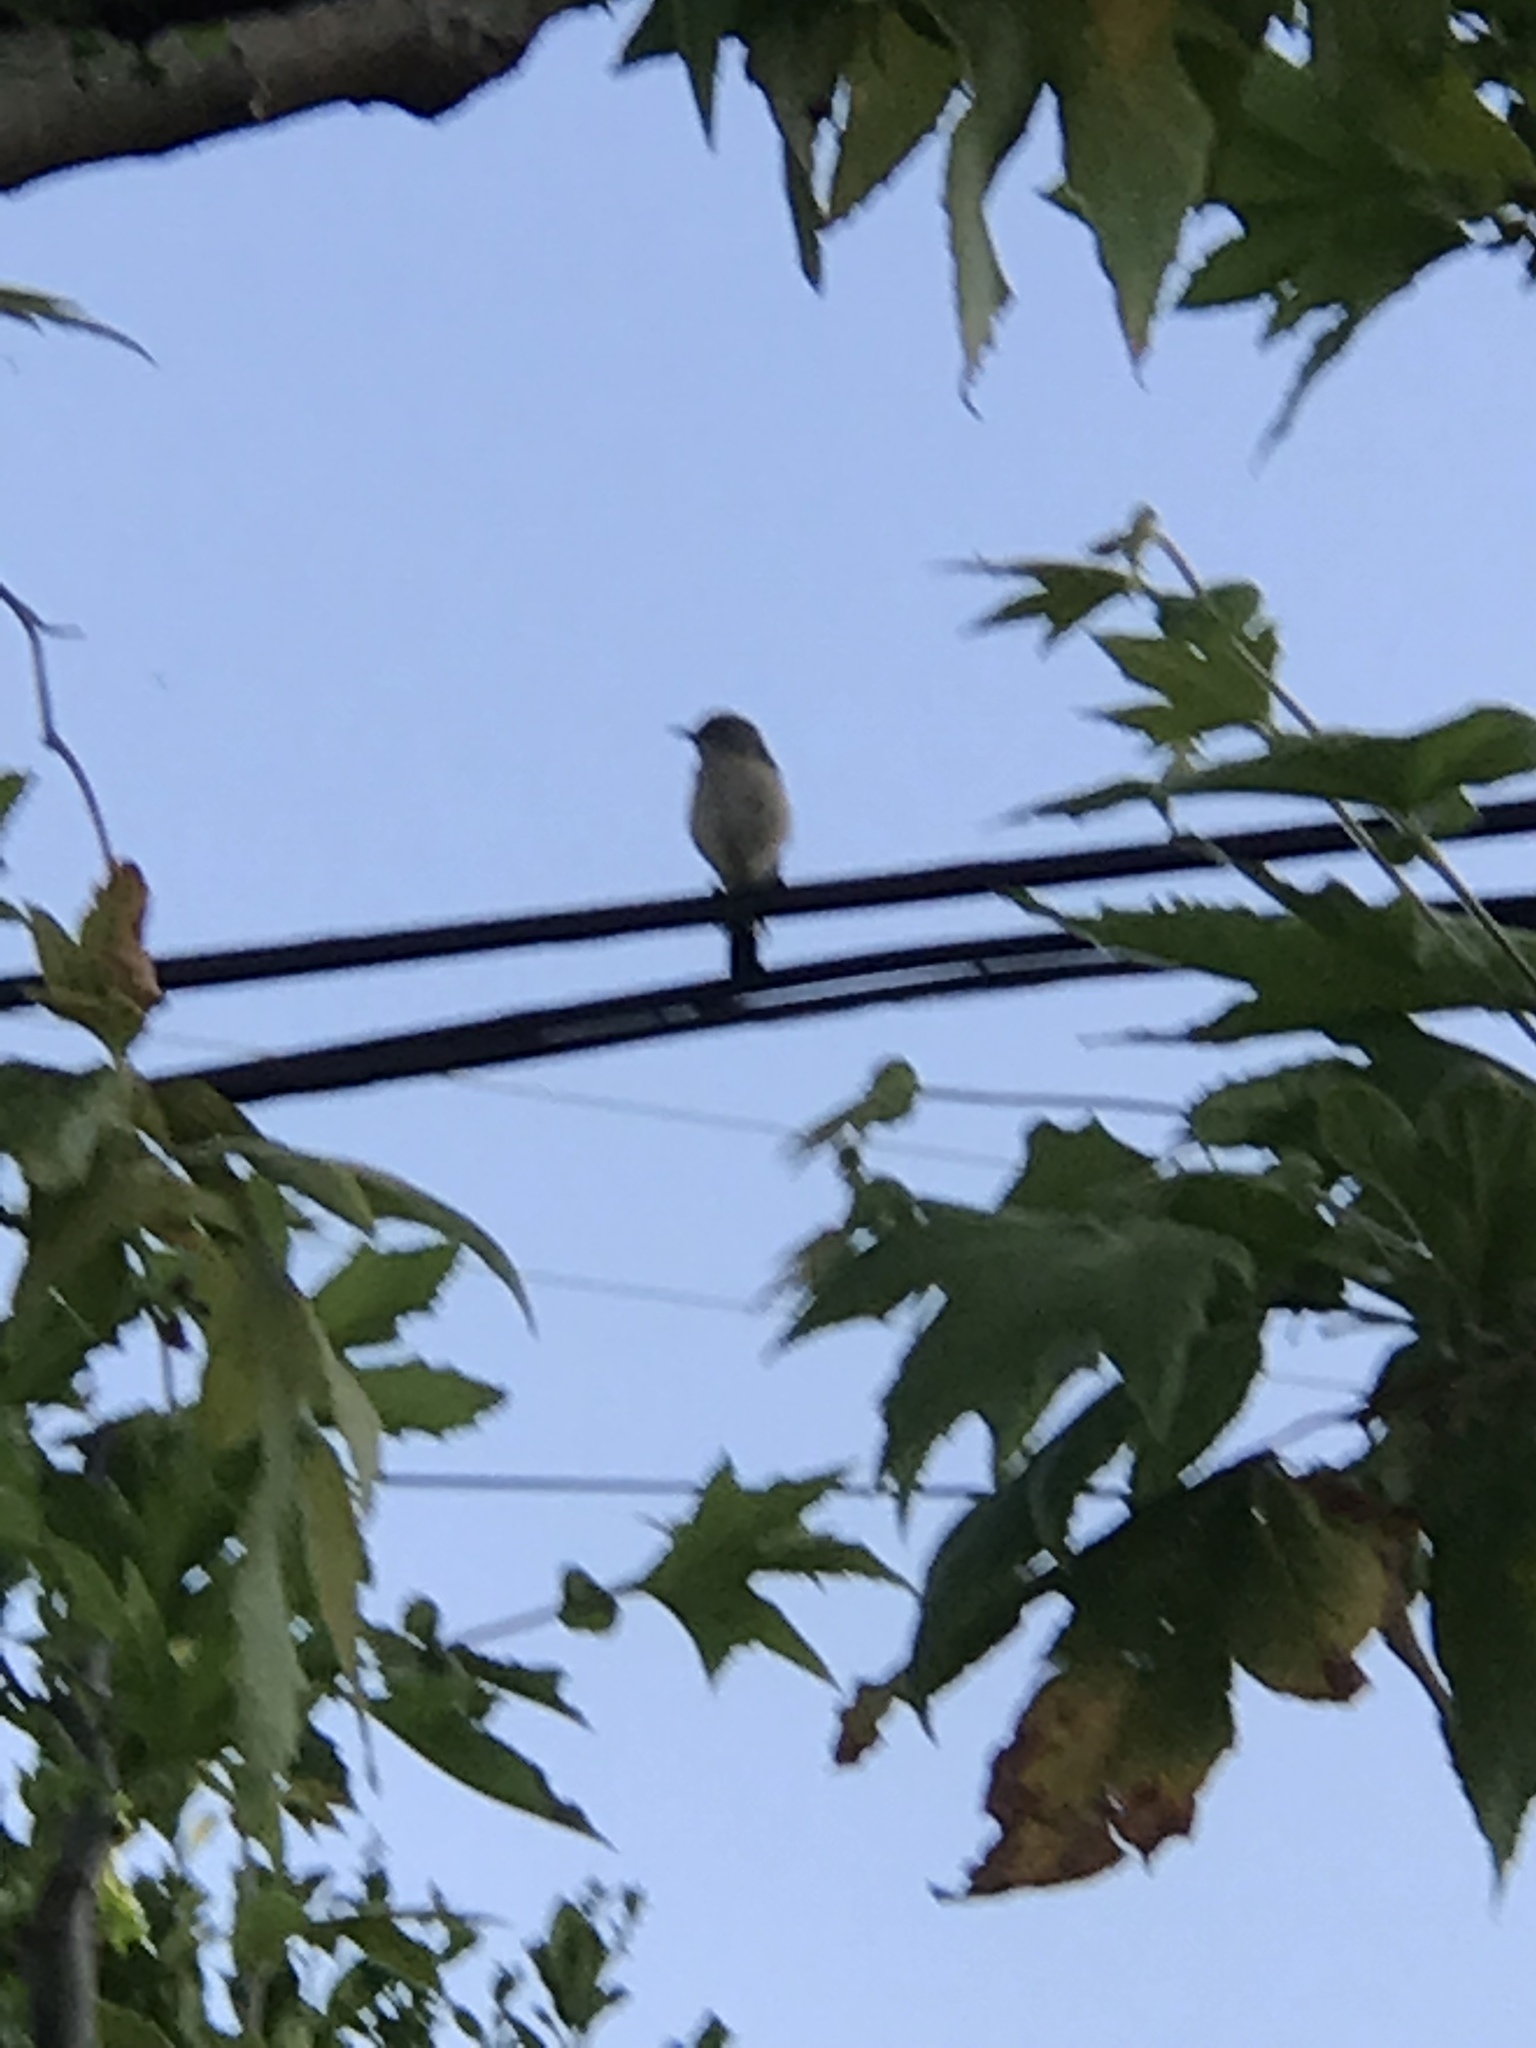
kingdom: Animalia
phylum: Chordata
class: Aves
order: Passeriformes
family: Mimidae
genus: Mimus
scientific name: Mimus polyglottos
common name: Northern mockingbird
